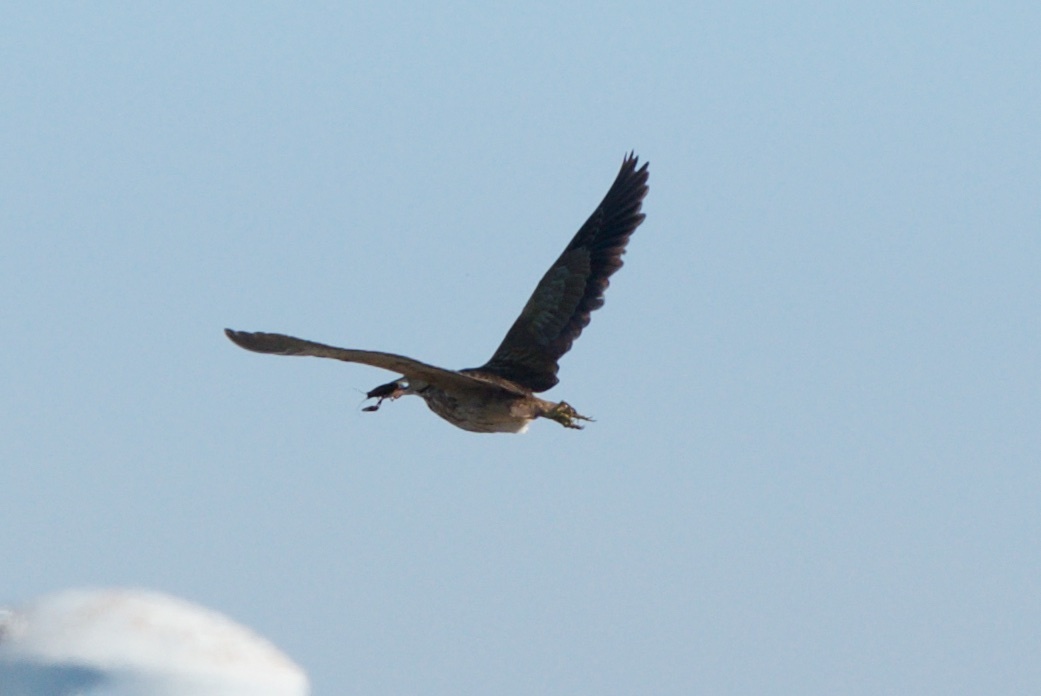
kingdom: Animalia
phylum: Chordata
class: Aves
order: Pelecaniformes
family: Ardeidae
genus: Botaurus
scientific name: Botaurus lentiginosus
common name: American bittern
